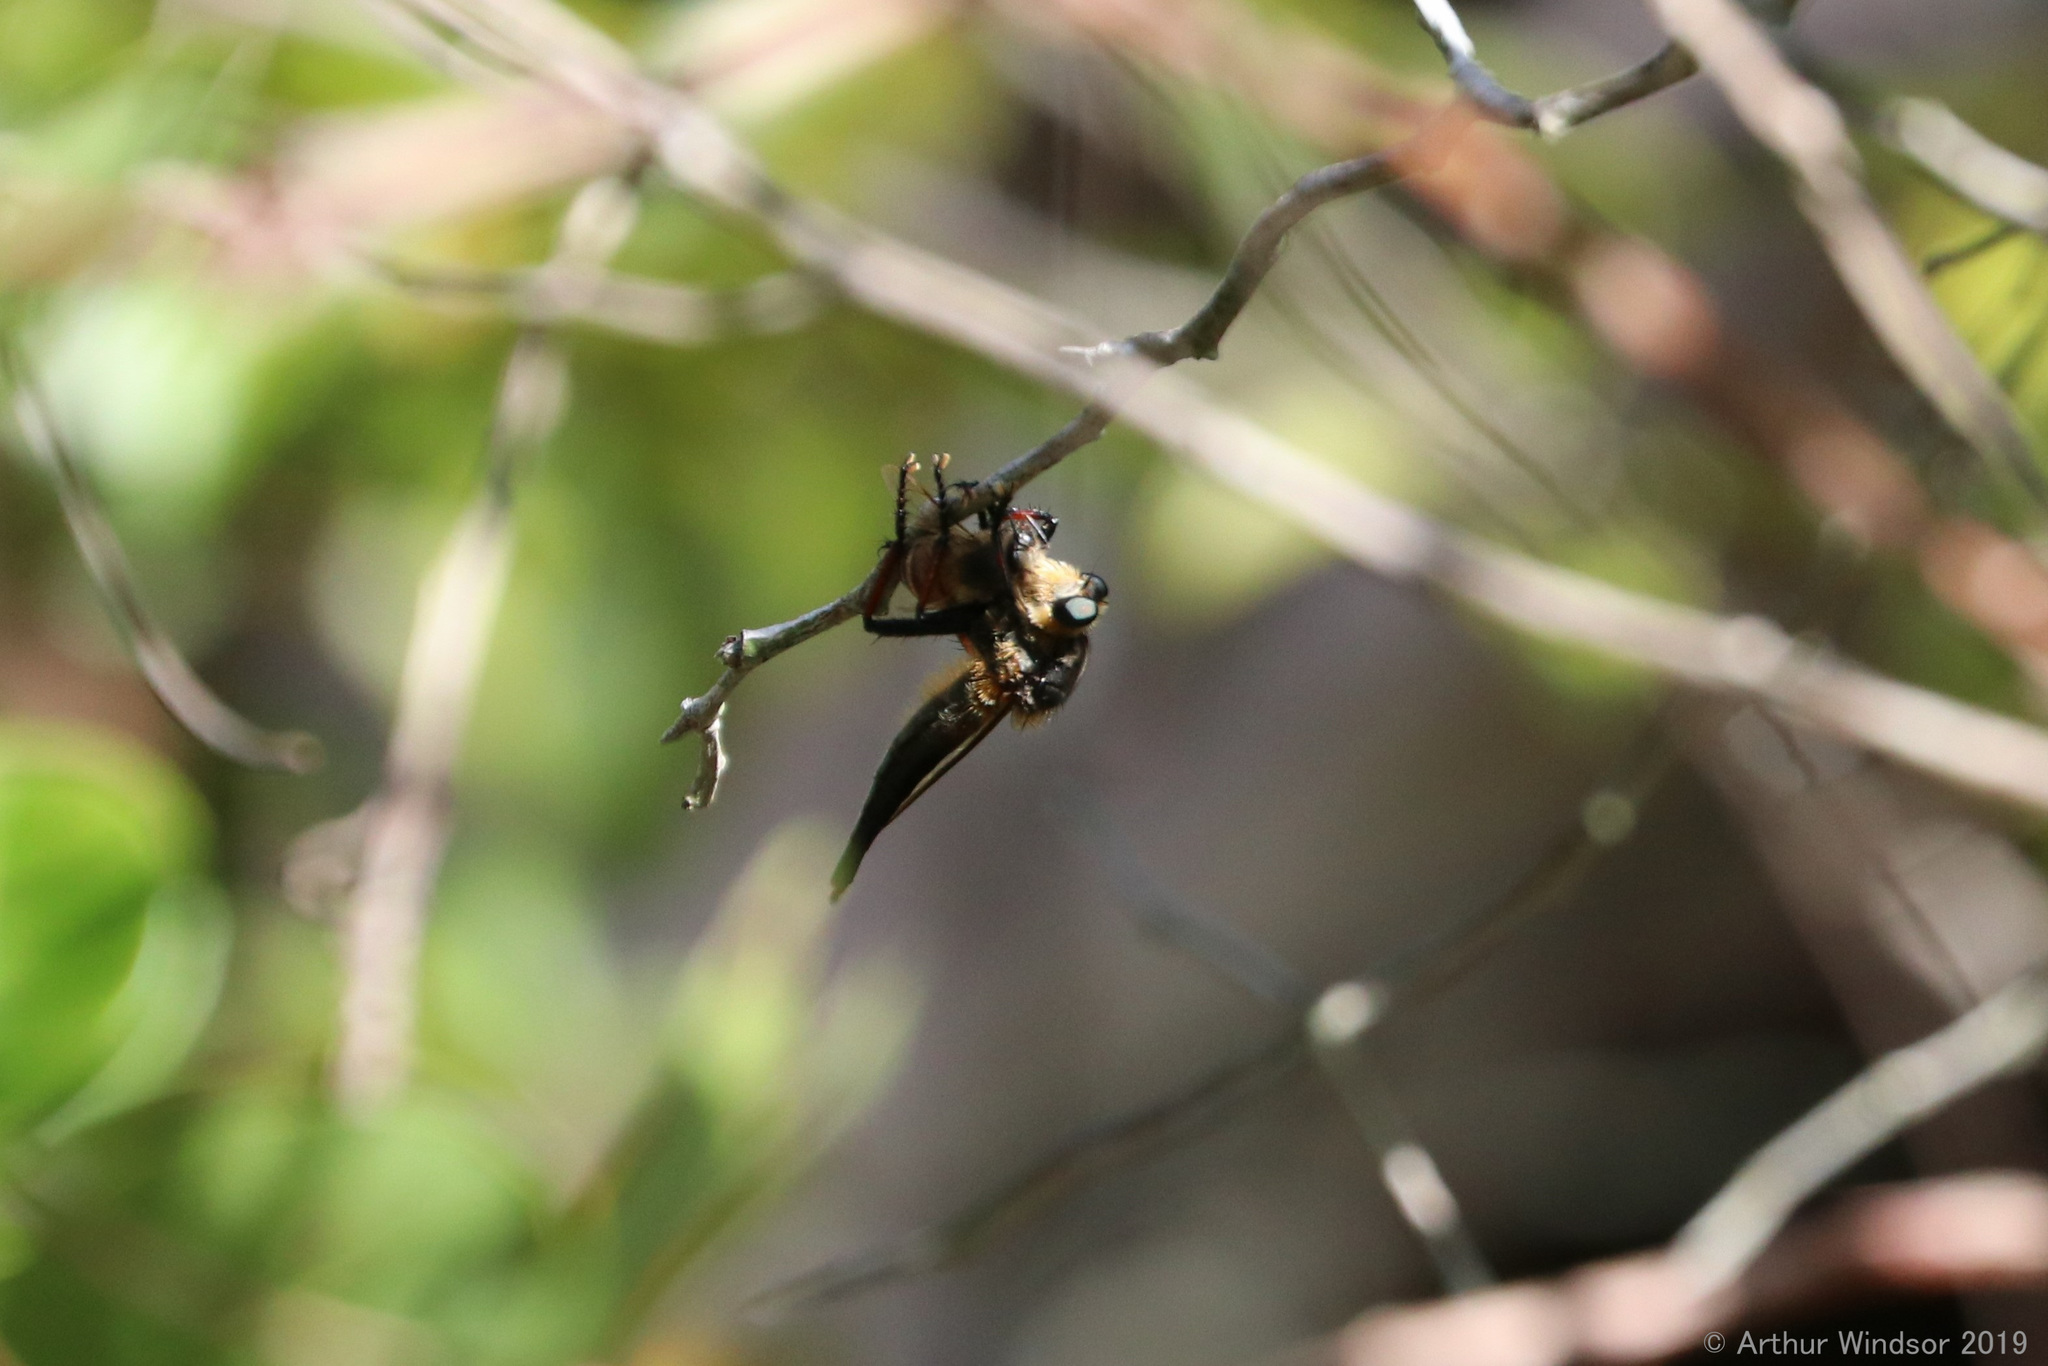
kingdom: Animalia
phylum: Arthropoda
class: Insecta
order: Diptera
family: Asilidae
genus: Proctacanthus
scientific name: Proctacanthus fulviventris
